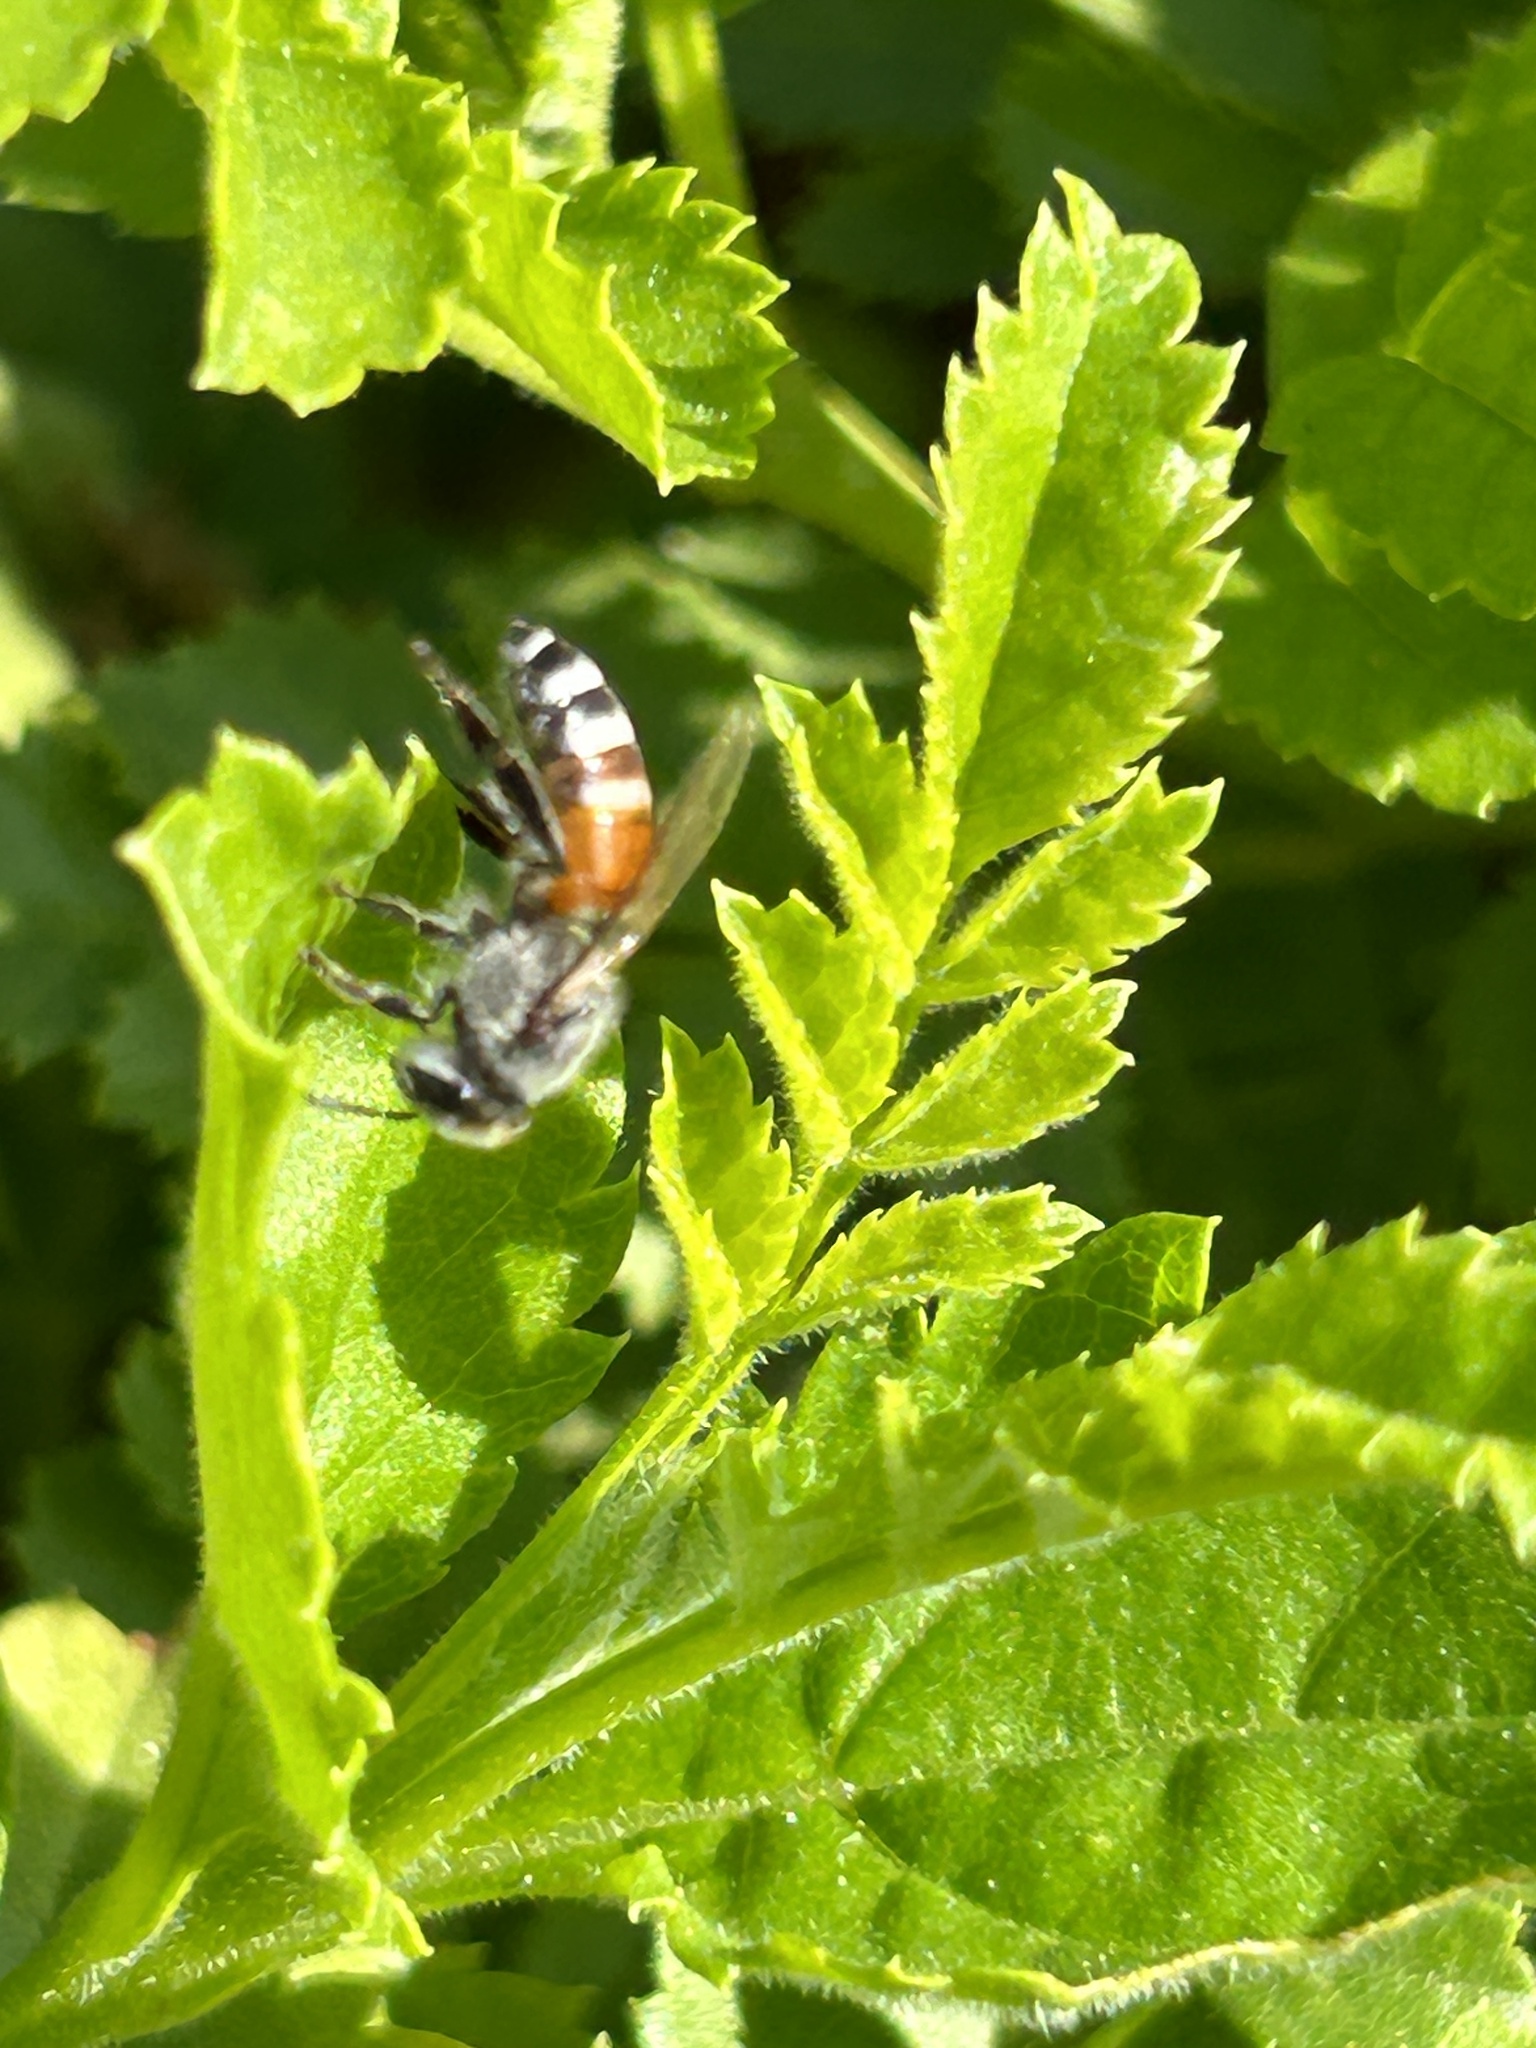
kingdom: Animalia
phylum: Arthropoda
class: Insecta
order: Hymenoptera
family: Apidae
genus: Apis
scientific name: Apis florea
